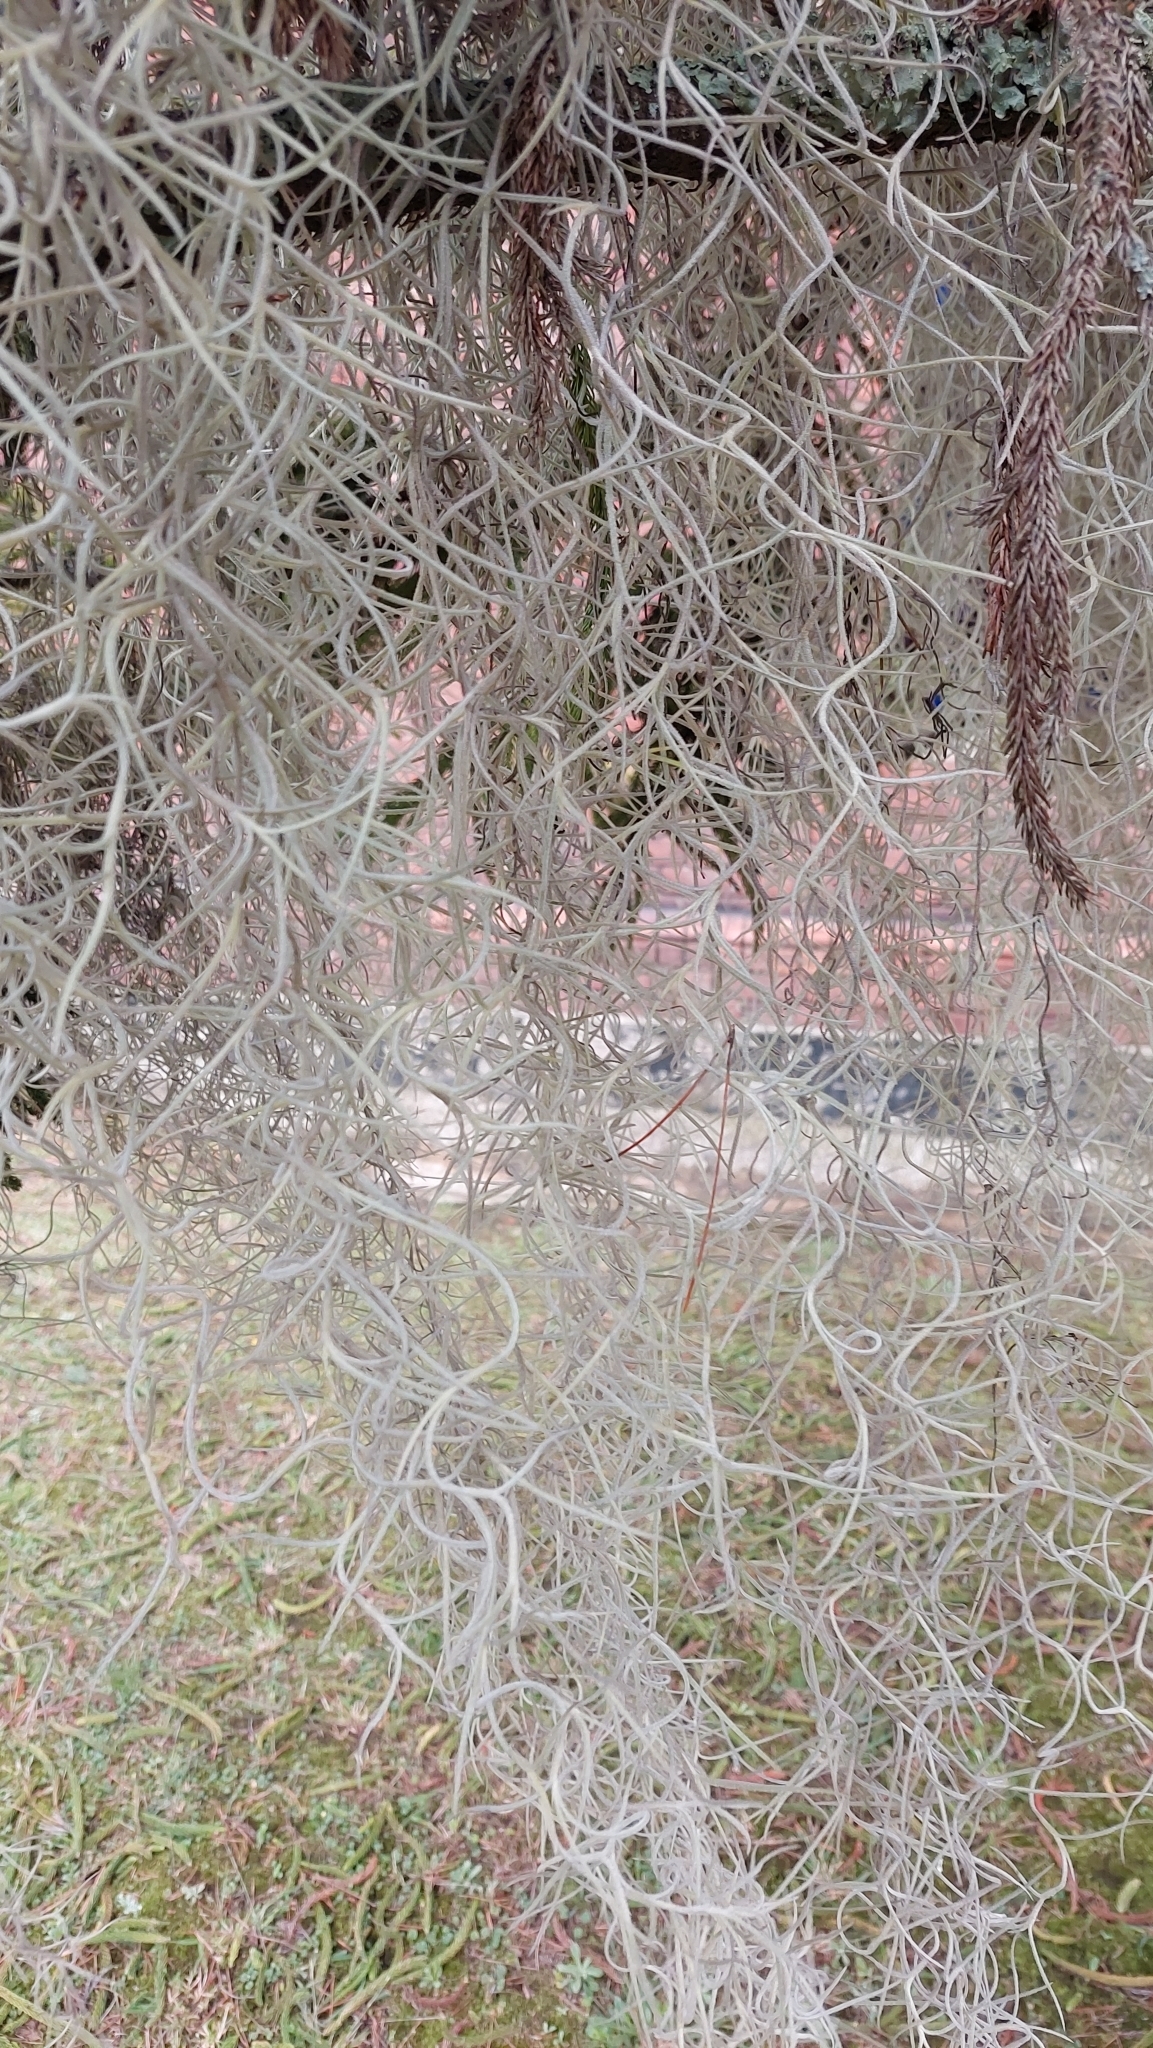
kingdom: Plantae
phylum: Tracheophyta
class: Liliopsida
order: Poales
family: Bromeliaceae
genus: Tillandsia
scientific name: Tillandsia usneoides
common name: Spanish moss
